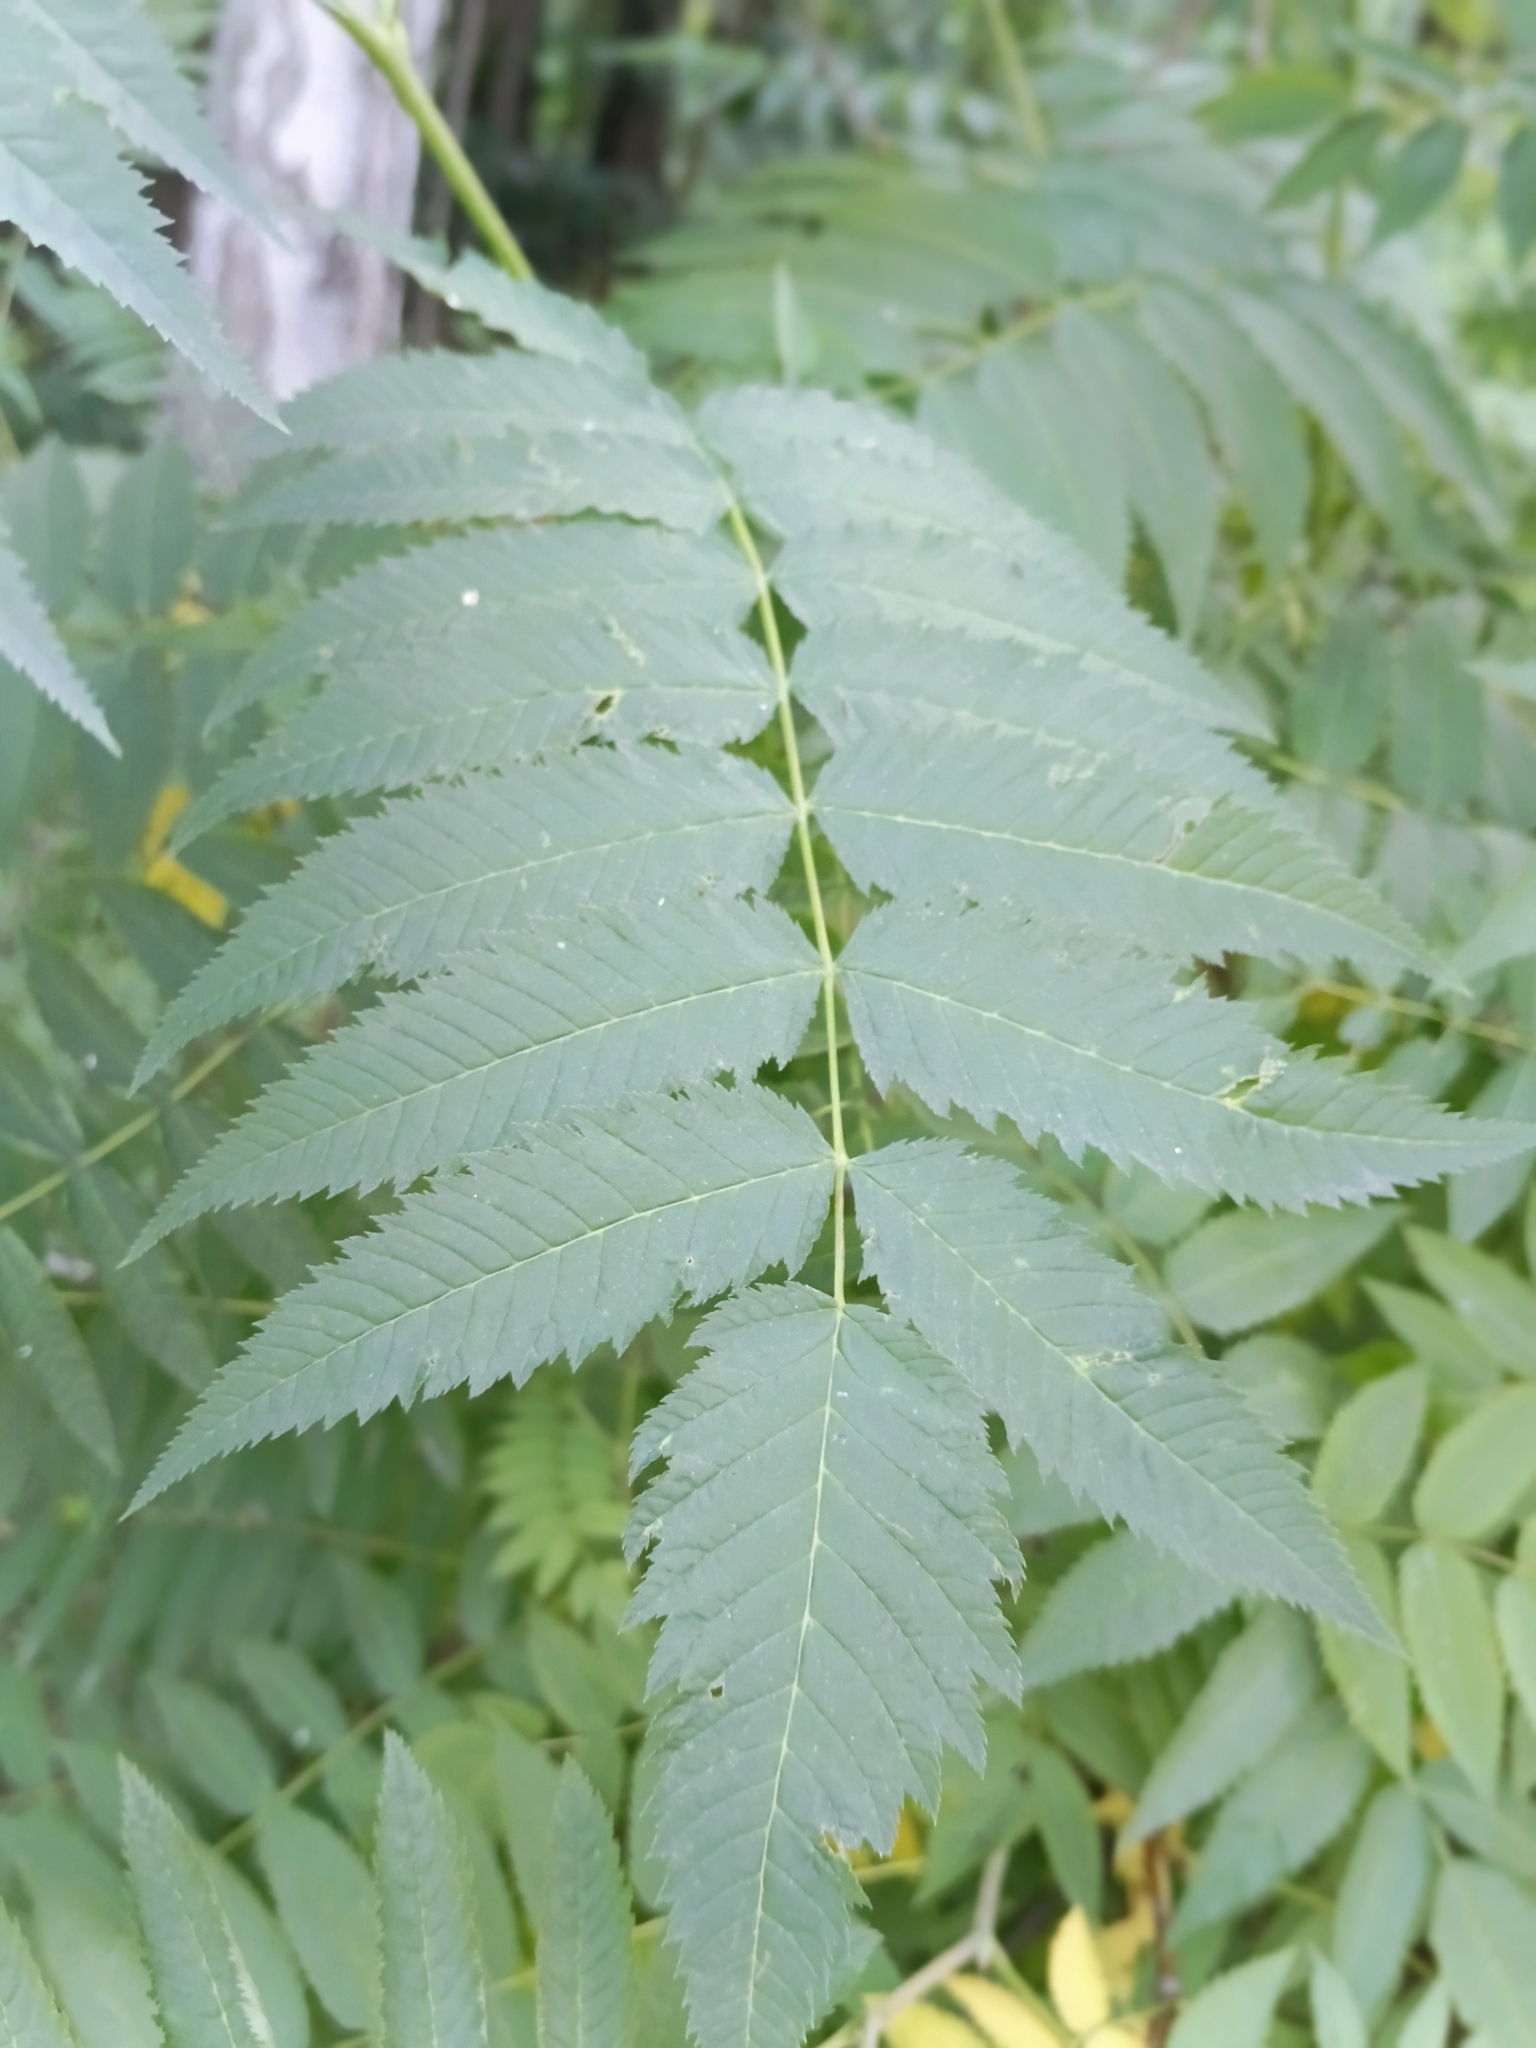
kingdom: Plantae
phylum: Tracheophyta
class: Magnoliopsida
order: Rosales
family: Rosaceae
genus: Sorbaria
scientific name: Sorbaria sorbifolia
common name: False spiraea
